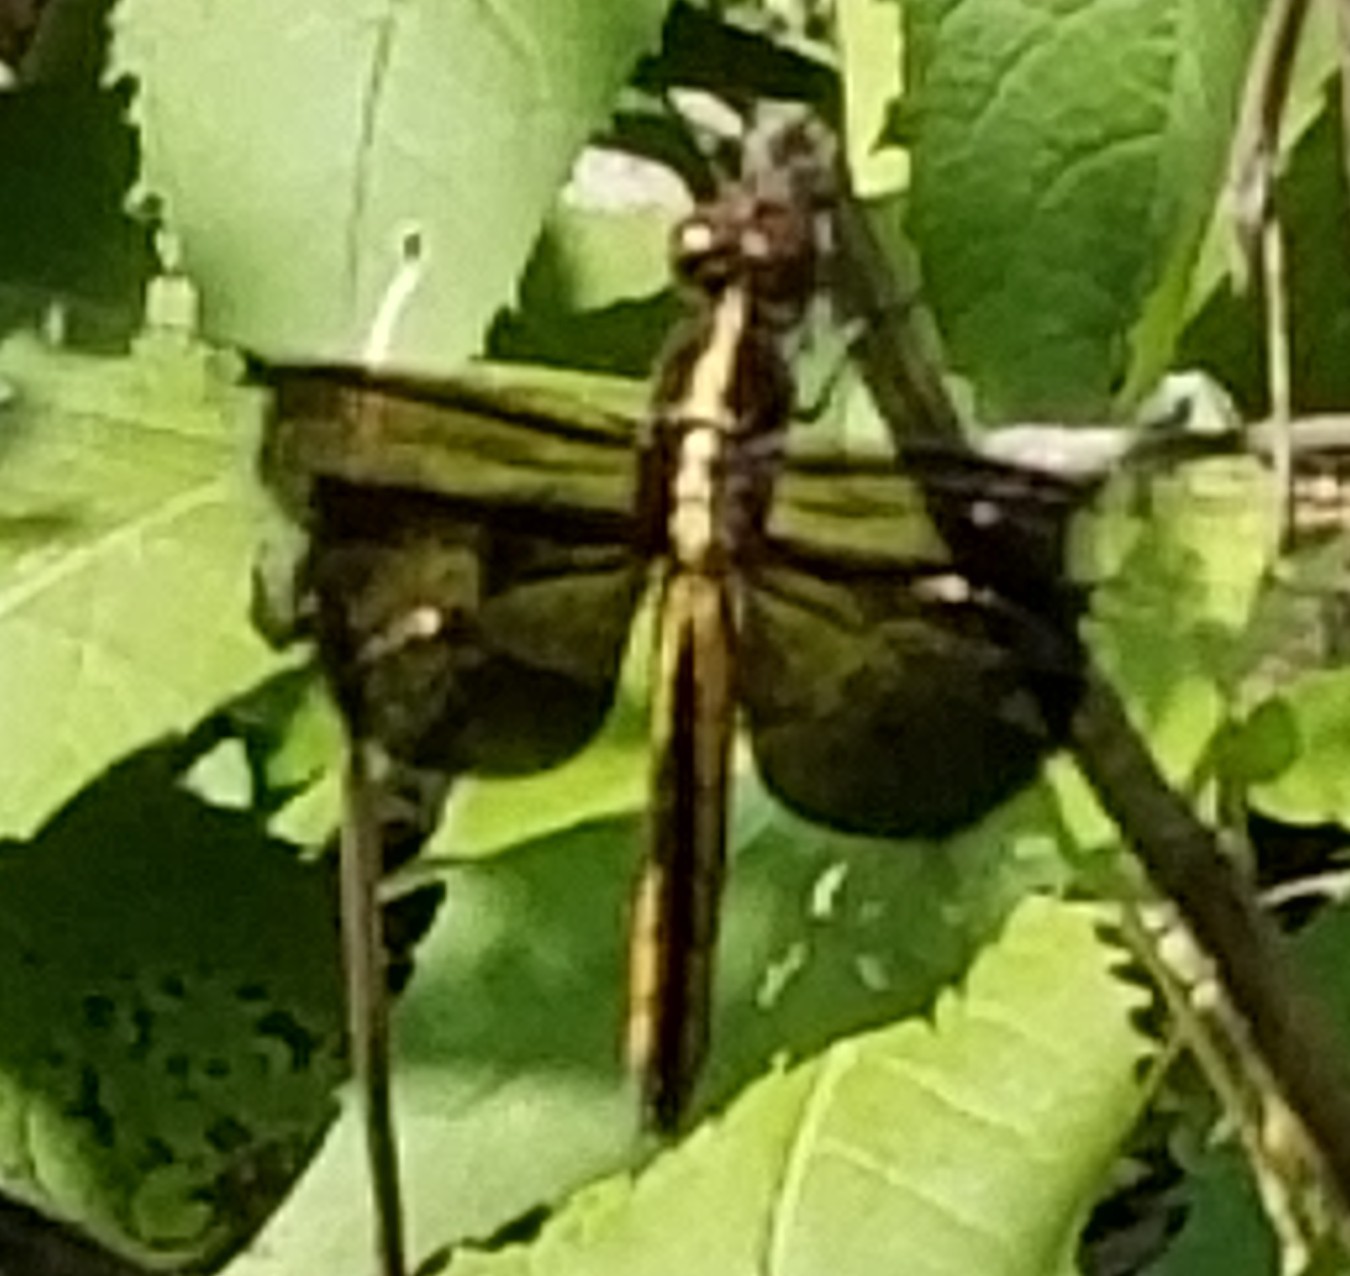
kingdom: Animalia
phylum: Arthropoda
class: Insecta
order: Odonata
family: Libellulidae
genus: Libellula
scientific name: Libellula luctuosa
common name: Widow skimmer
